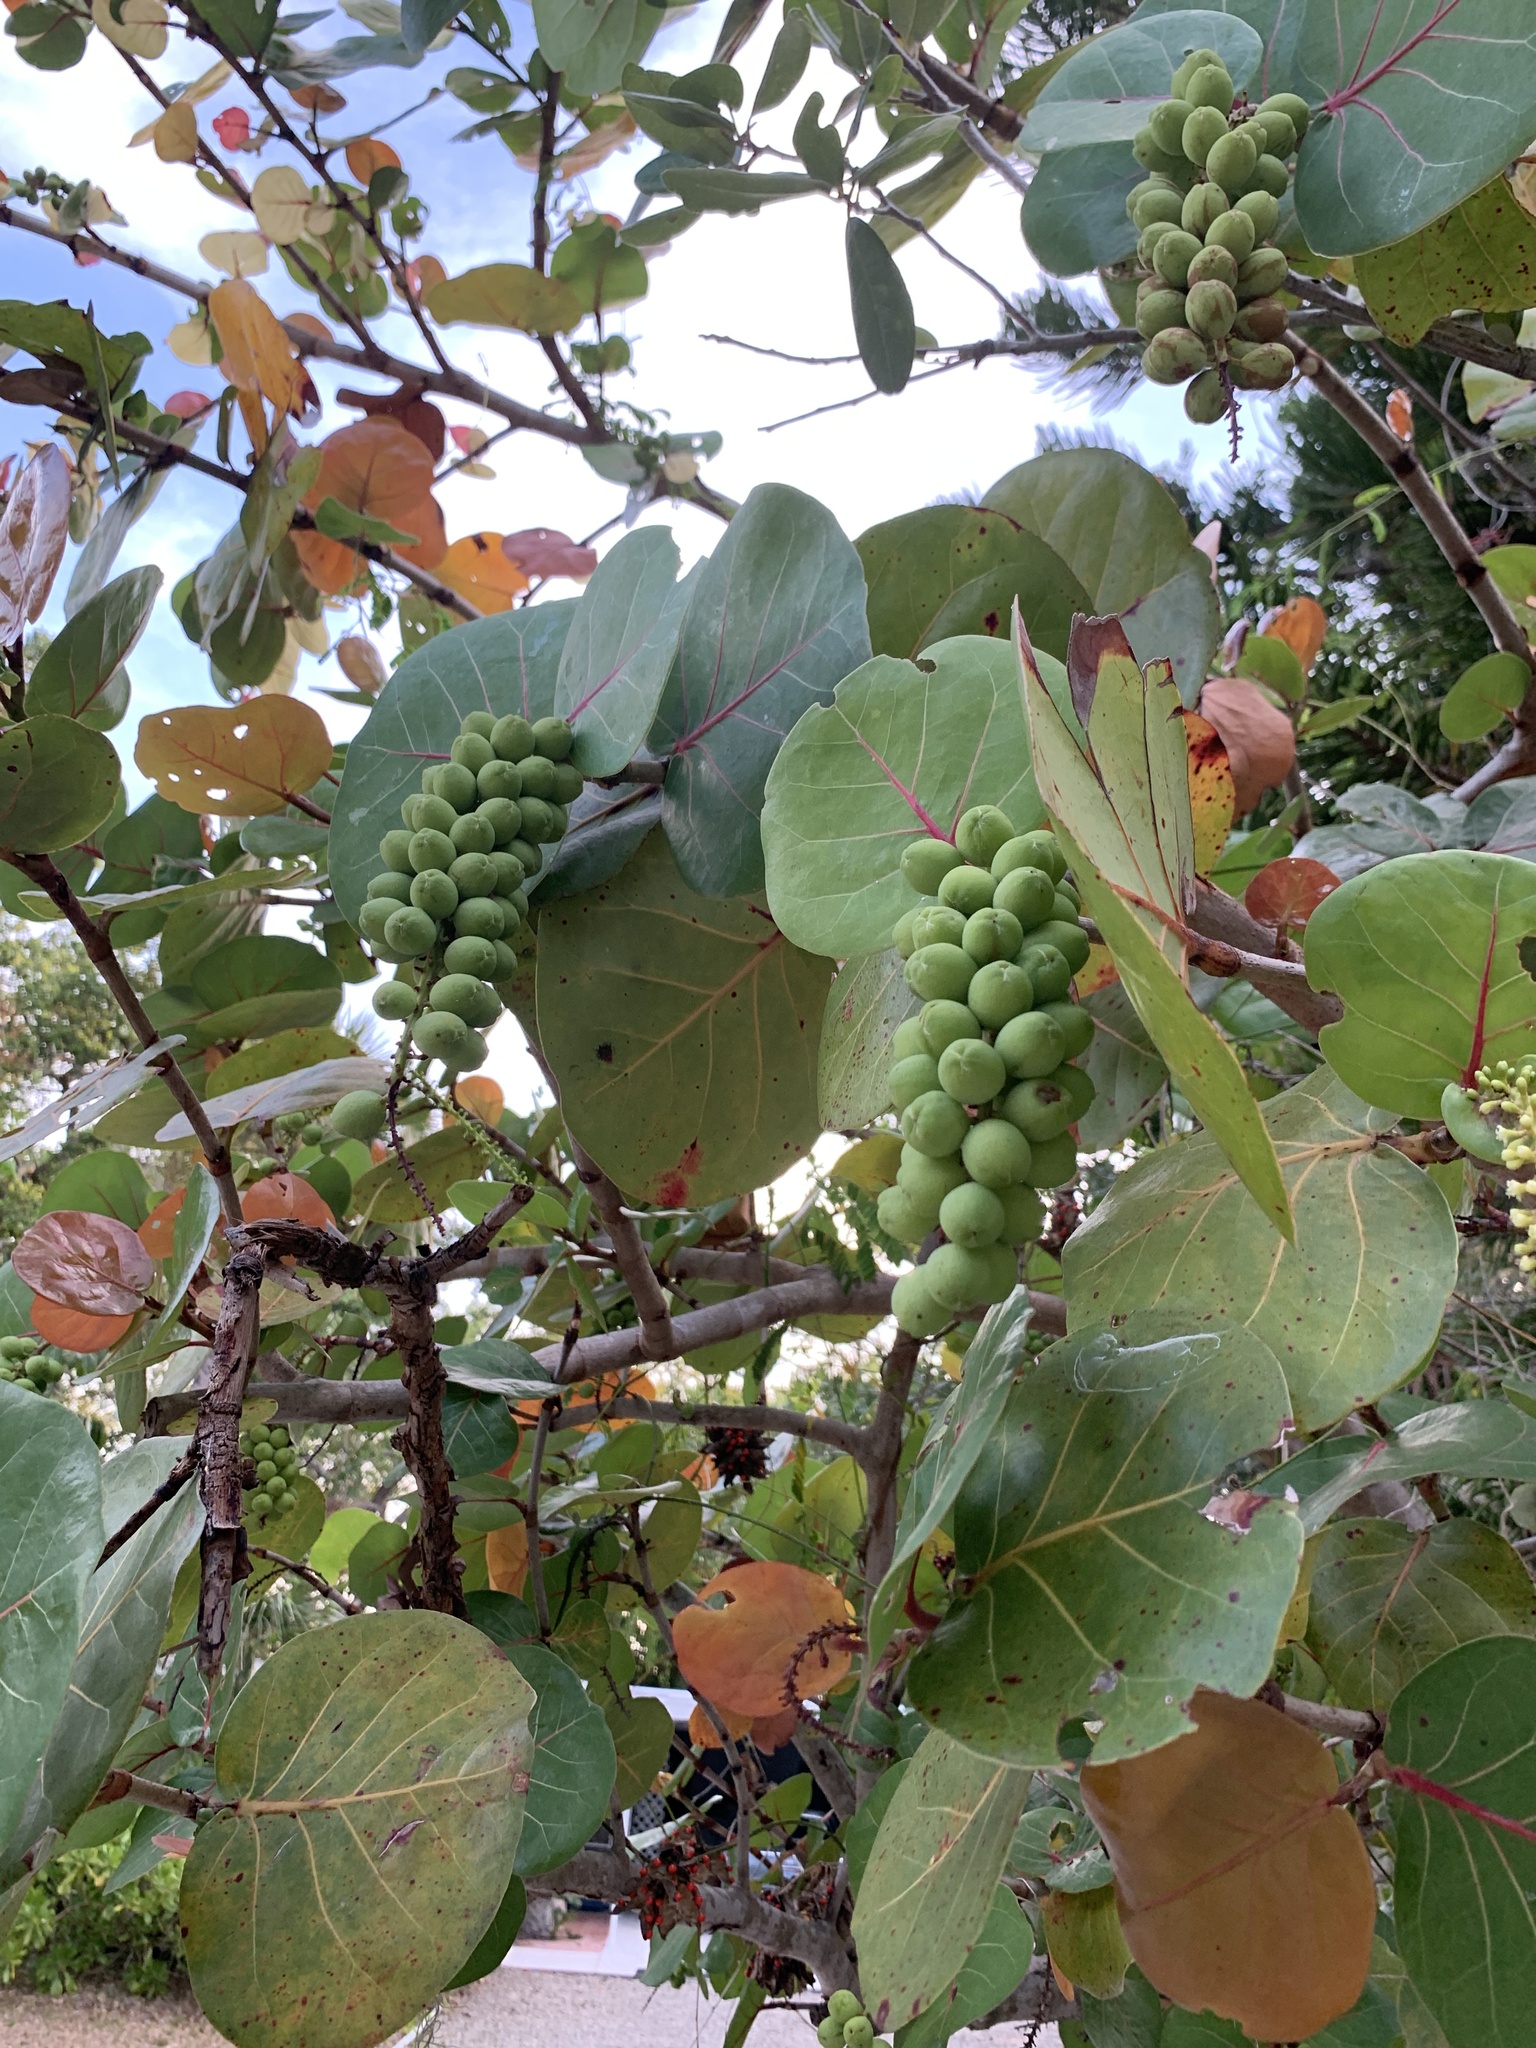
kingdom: Plantae
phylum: Tracheophyta
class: Magnoliopsida
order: Caryophyllales
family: Polygonaceae
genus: Coccoloba
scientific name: Coccoloba uvifera
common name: Seagrape
